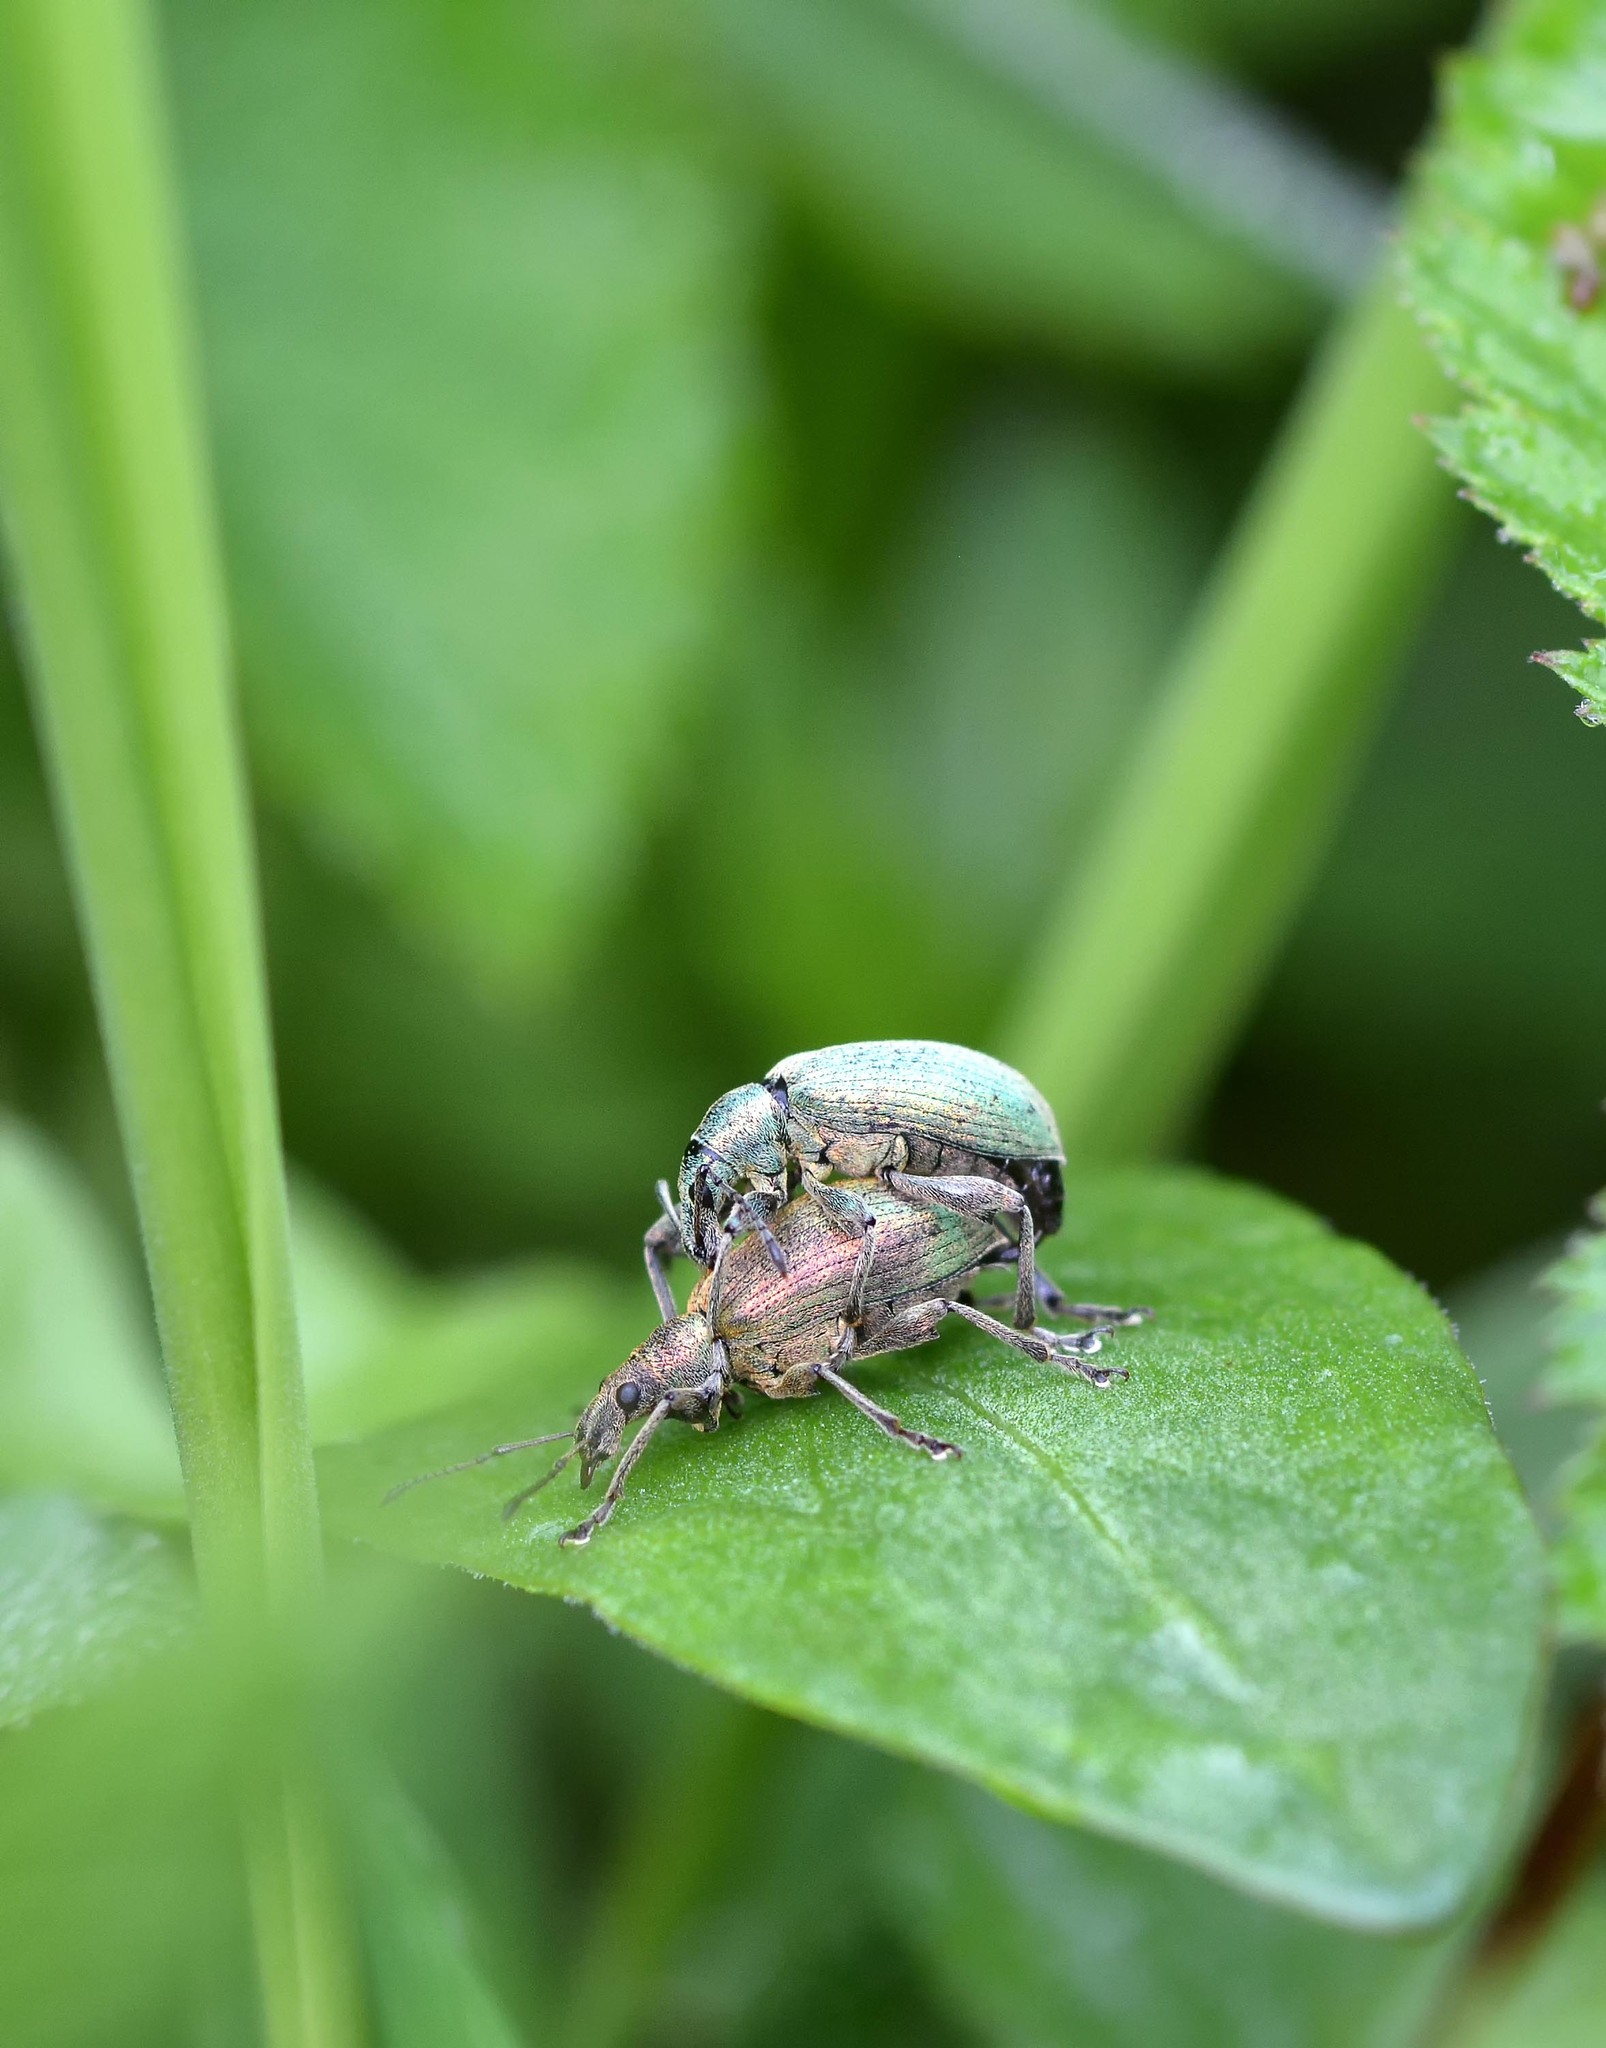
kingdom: Animalia
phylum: Arthropoda
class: Insecta
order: Coleoptera
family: Curculionidae
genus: Phyllobius
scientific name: Phyllobius pomaceus
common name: Green nettle weevil
